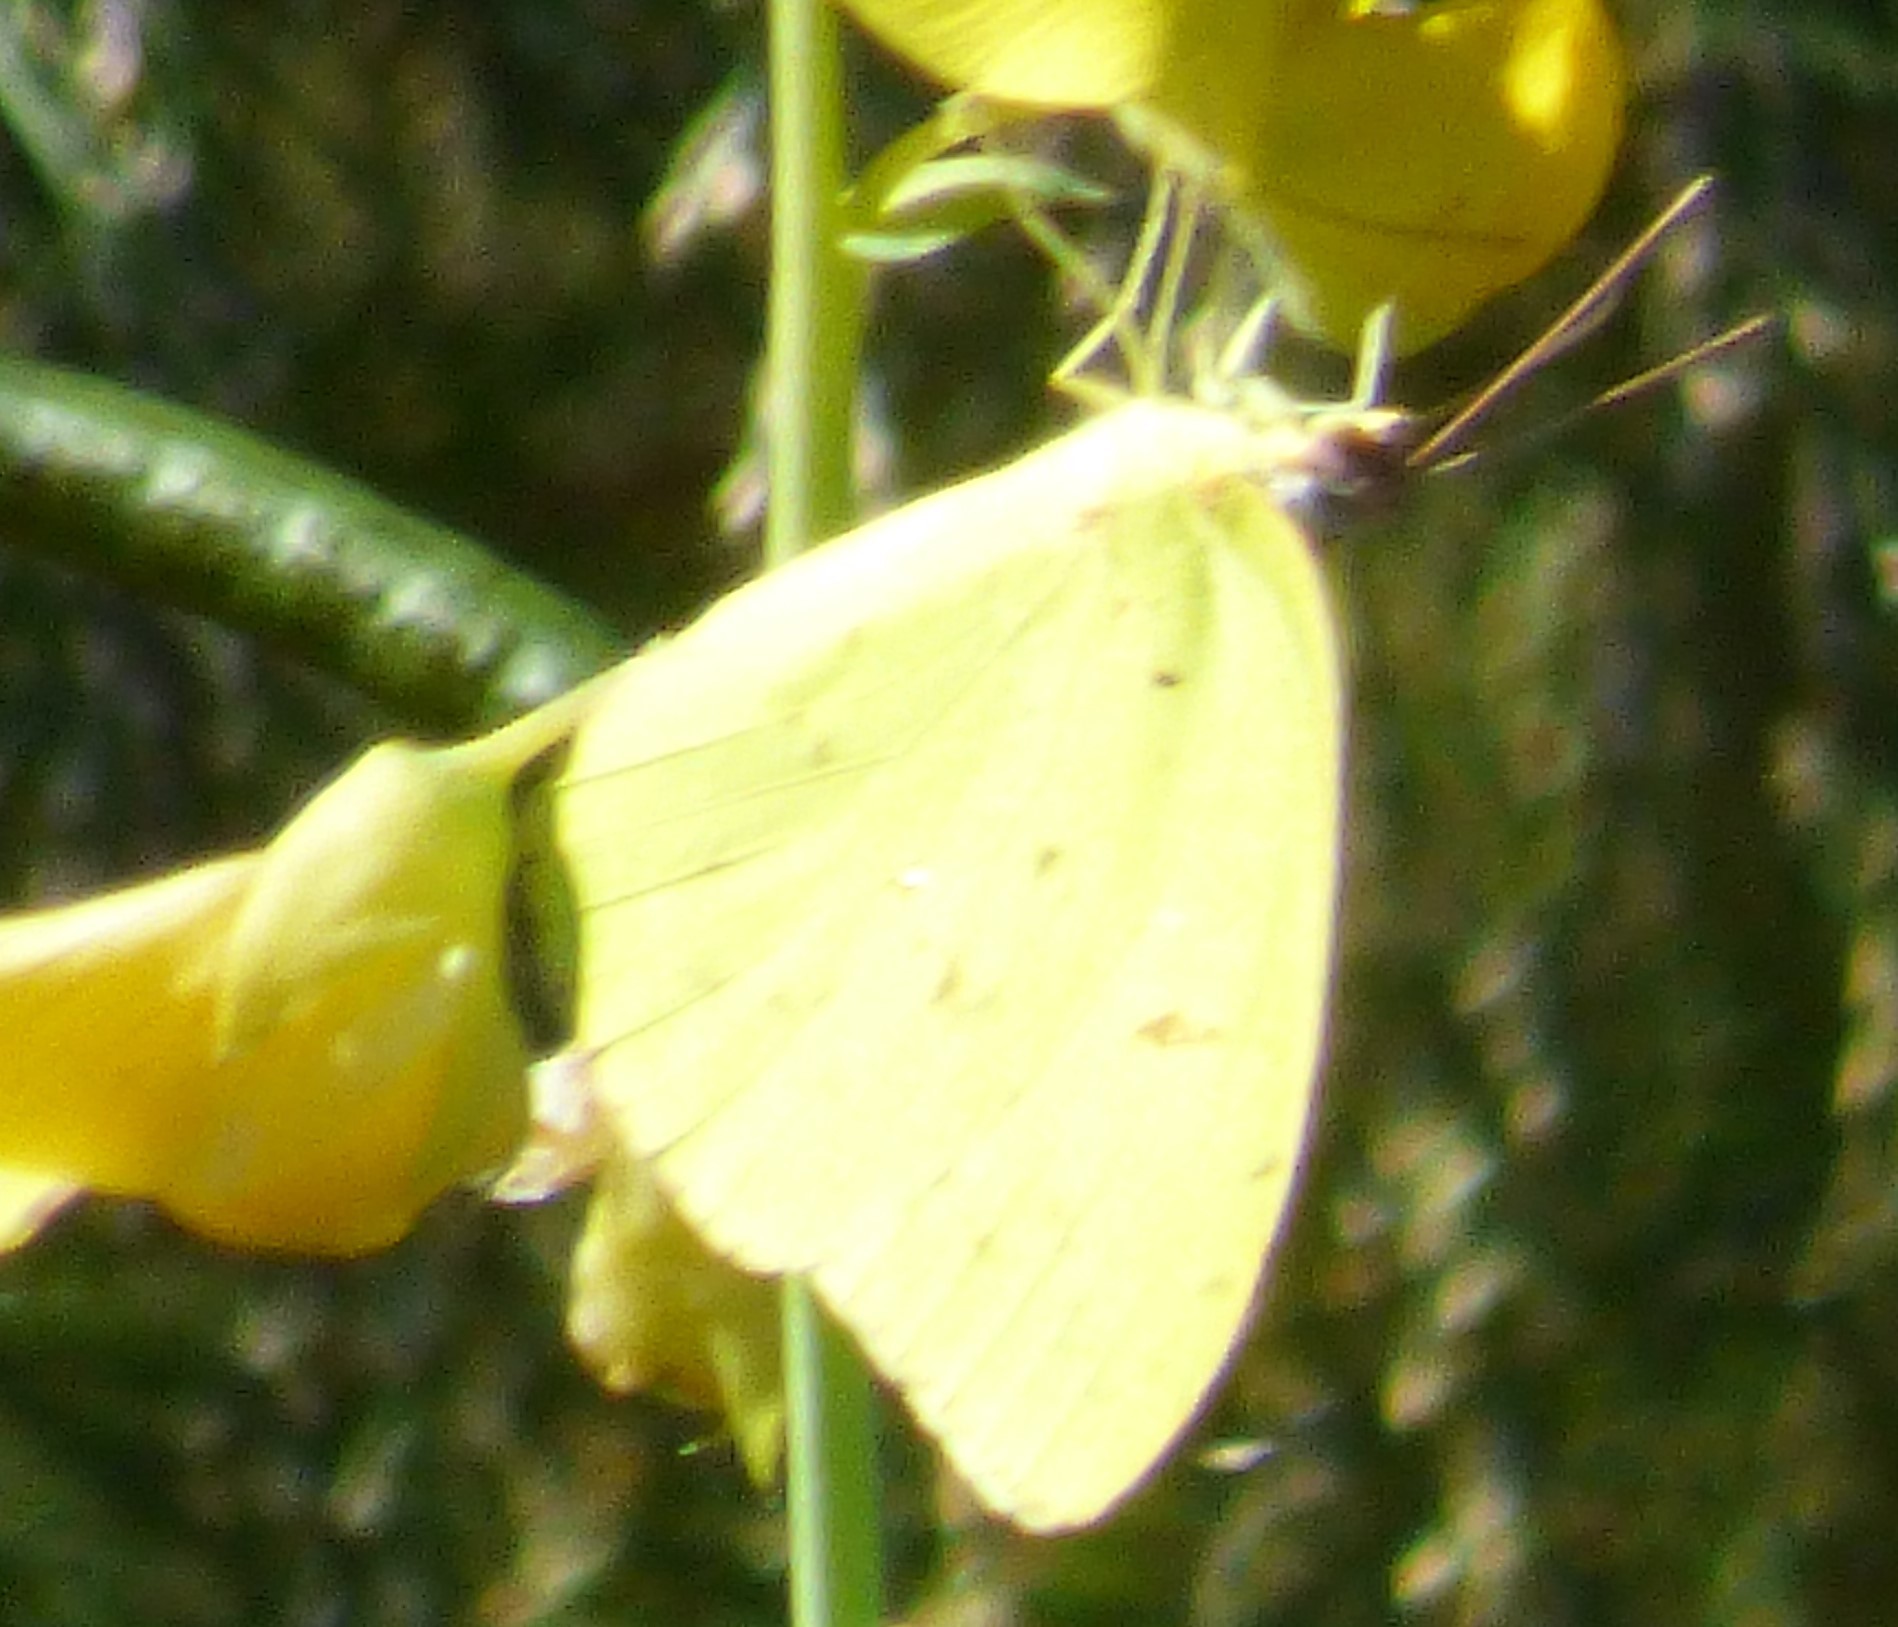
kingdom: Animalia
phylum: Arthropoda
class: Insecta
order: Lepidoptera
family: Pieridae
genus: Phoebis
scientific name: Phoebis sennae
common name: Cloudless sulphur
